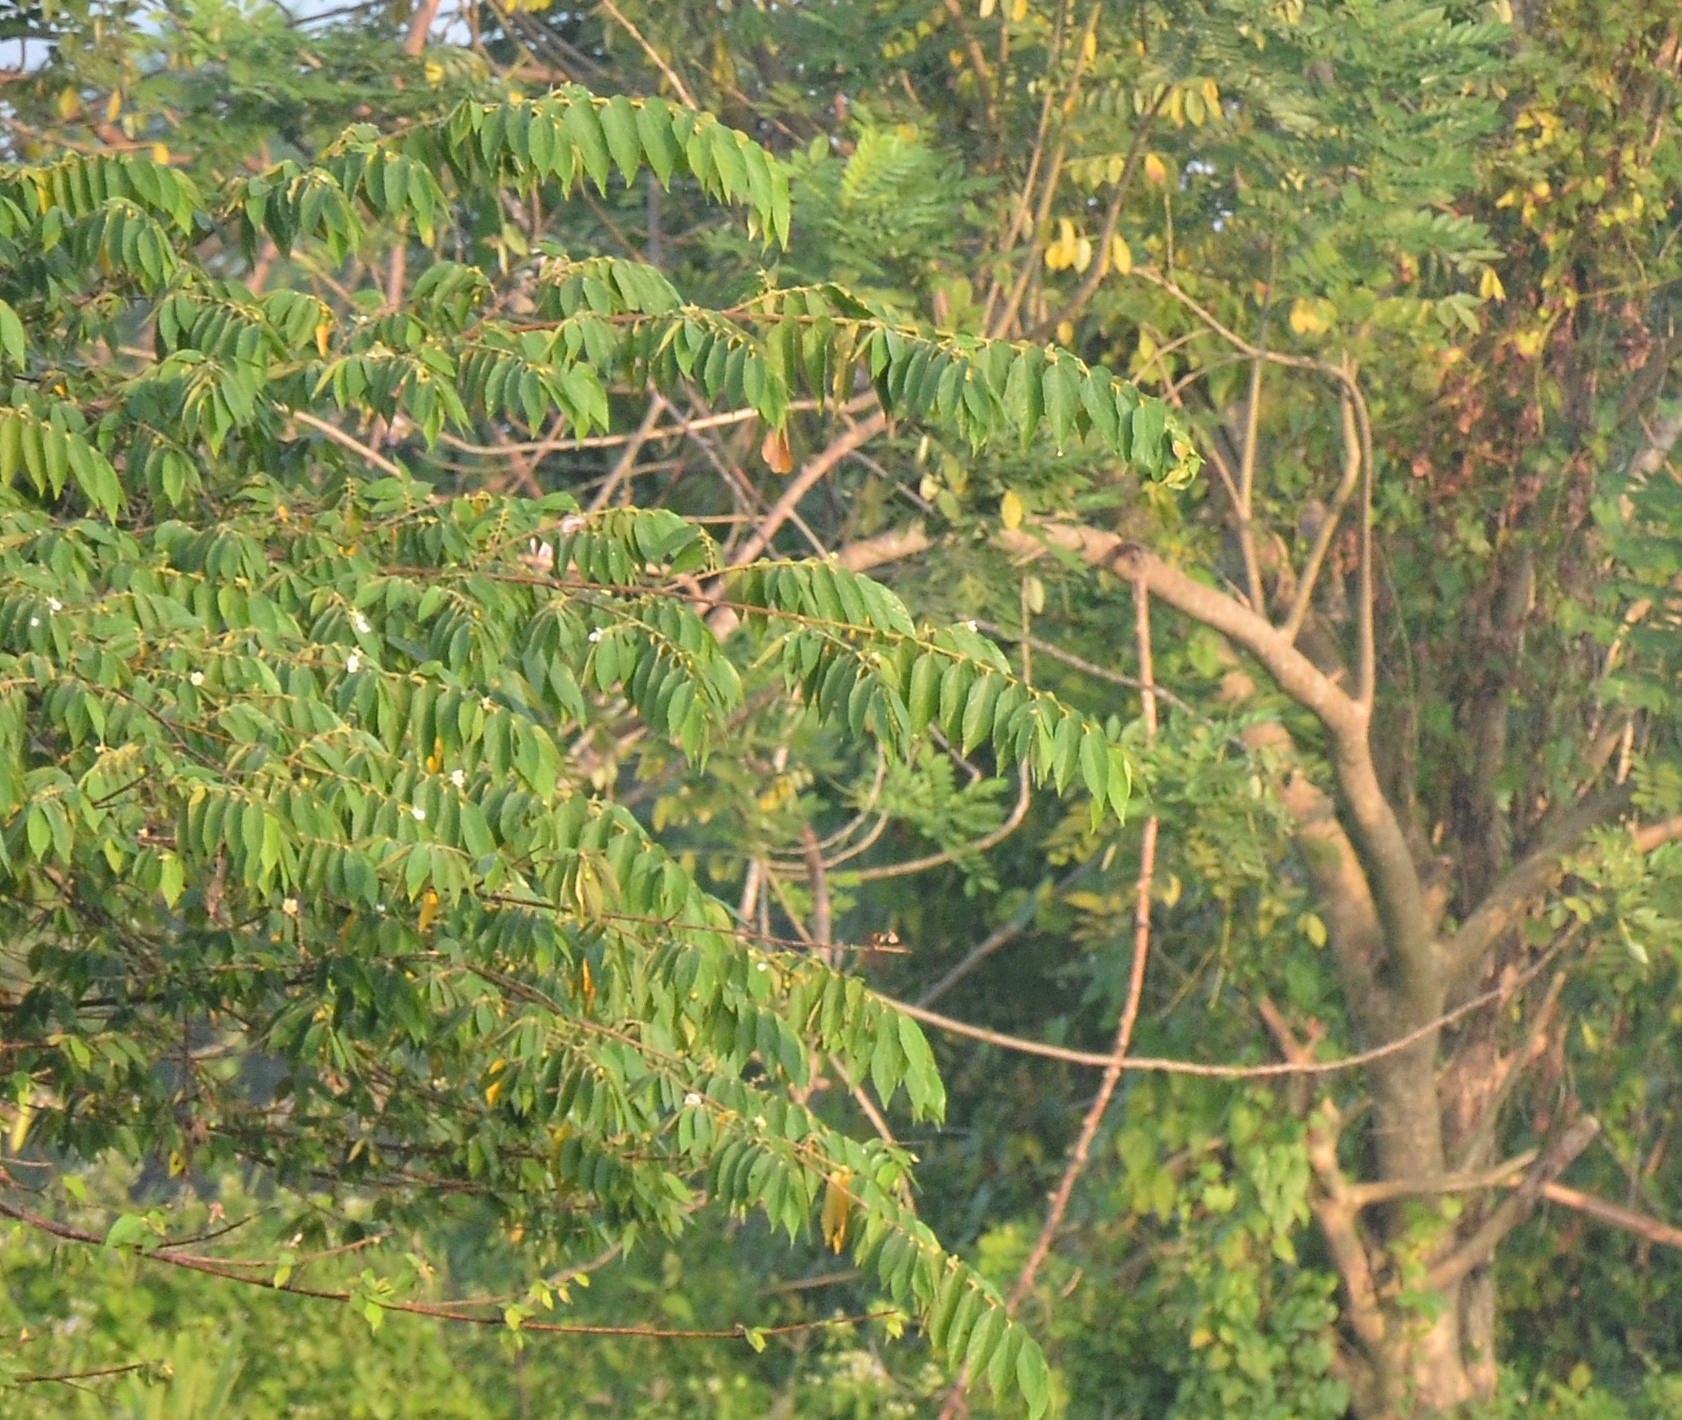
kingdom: Plantae
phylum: Tracheophyta
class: Magnoliopsida
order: Malvales
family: Muntingiaceae
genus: Muntingia
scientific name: Muntingia calabura
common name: Strawberrytree
